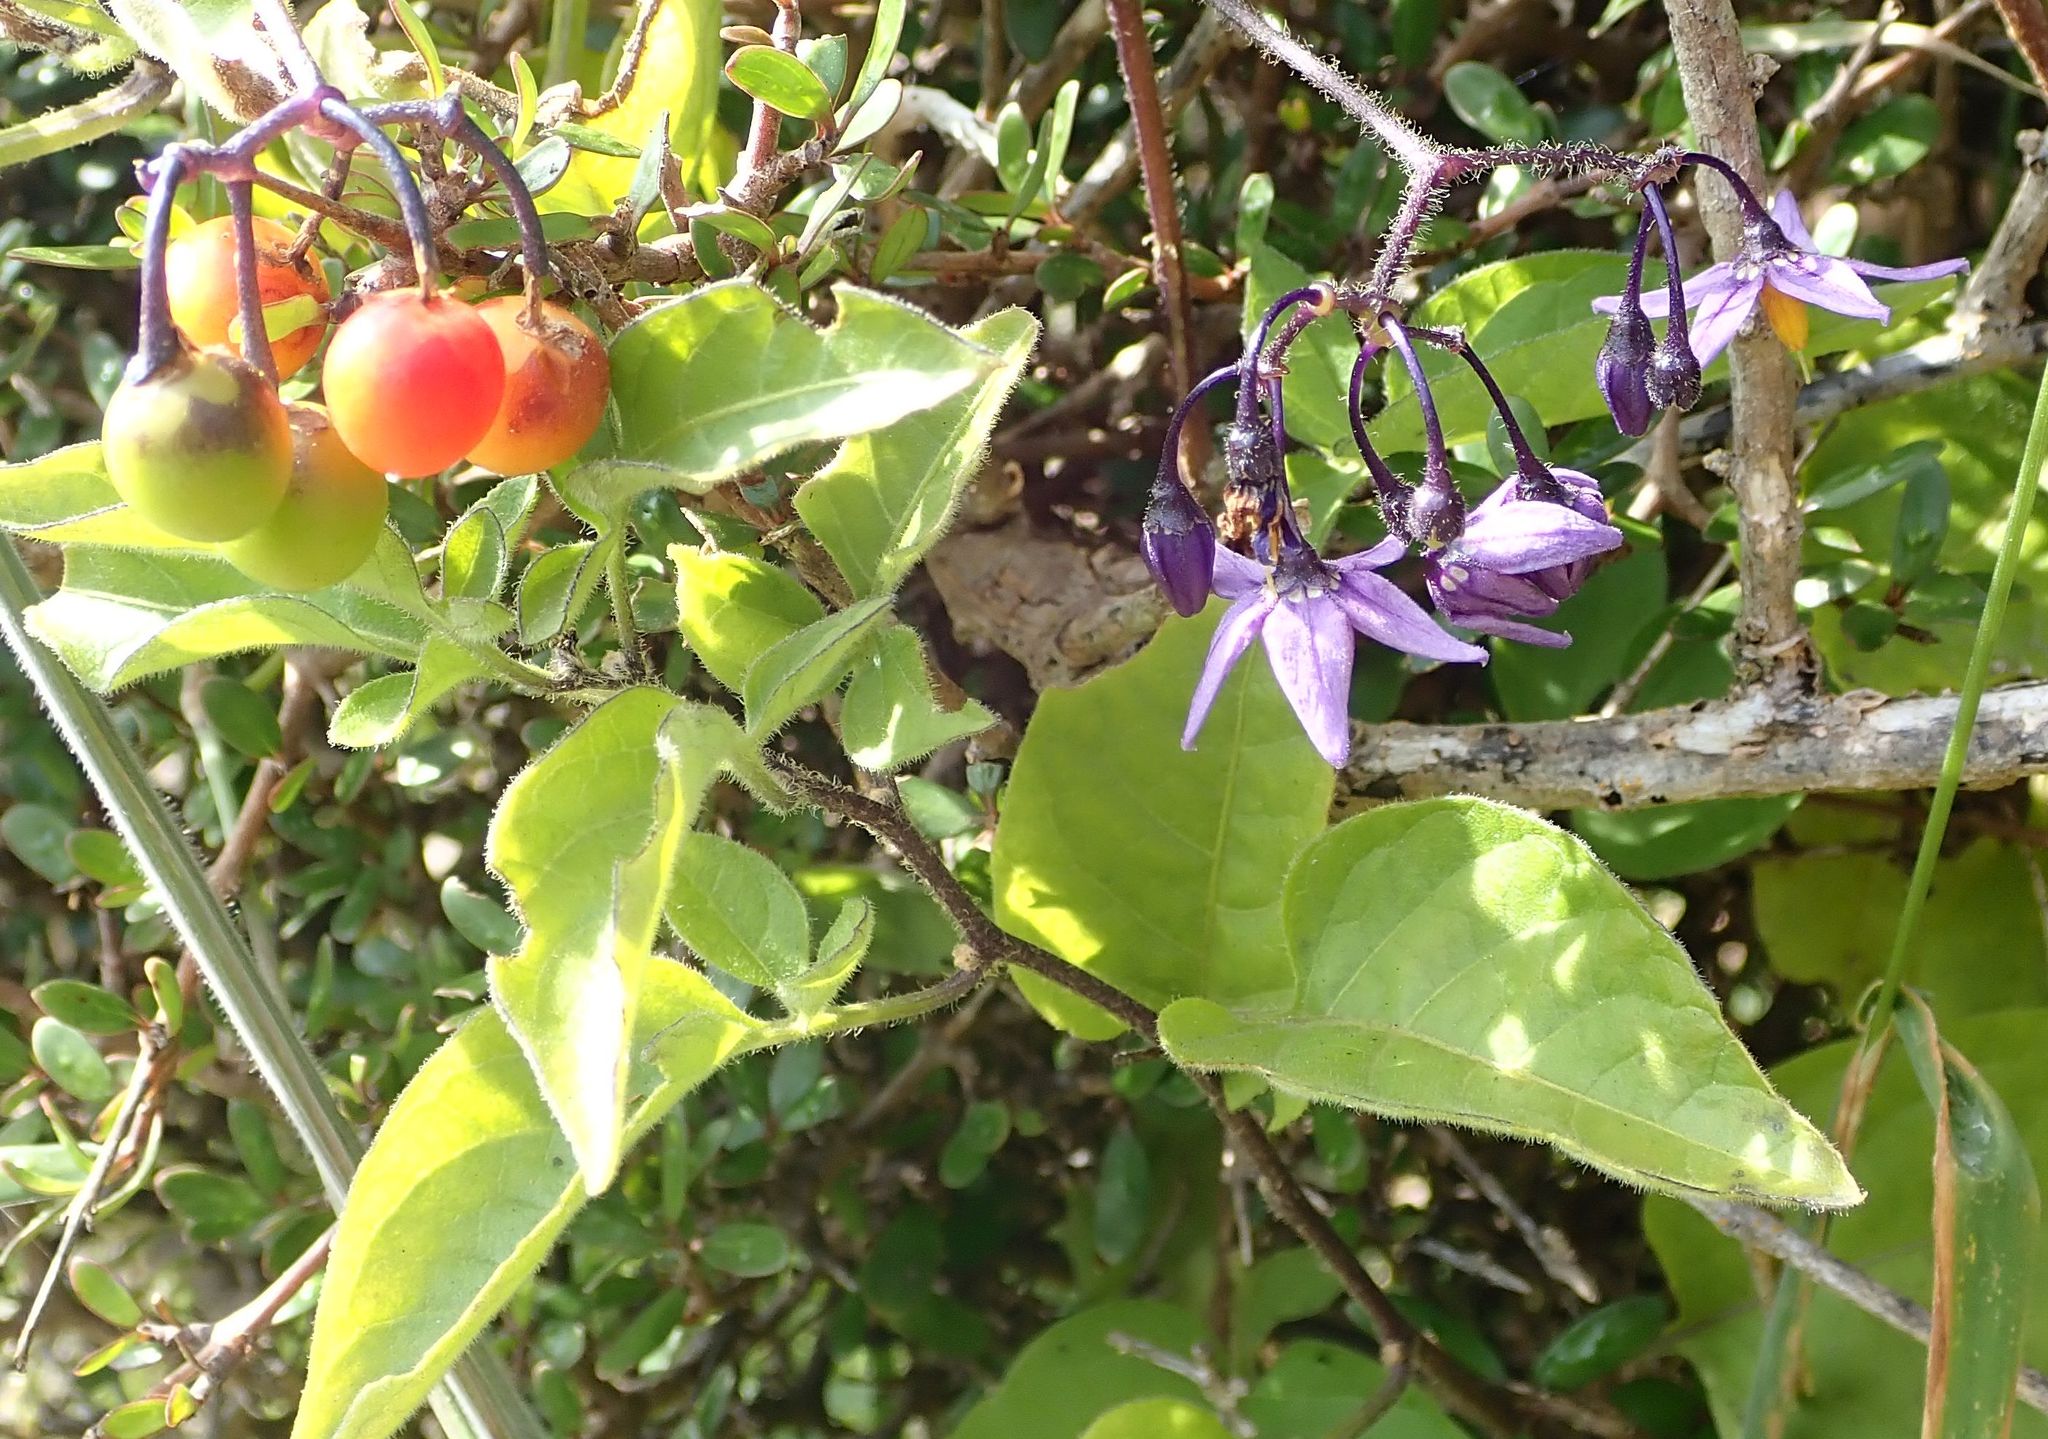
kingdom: Plantae
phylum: Tracheophyta
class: Magnoliopsida
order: Solanales
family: Solanaceae
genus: Solanum
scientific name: Solanum dulcamara
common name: Climbing nightshade
